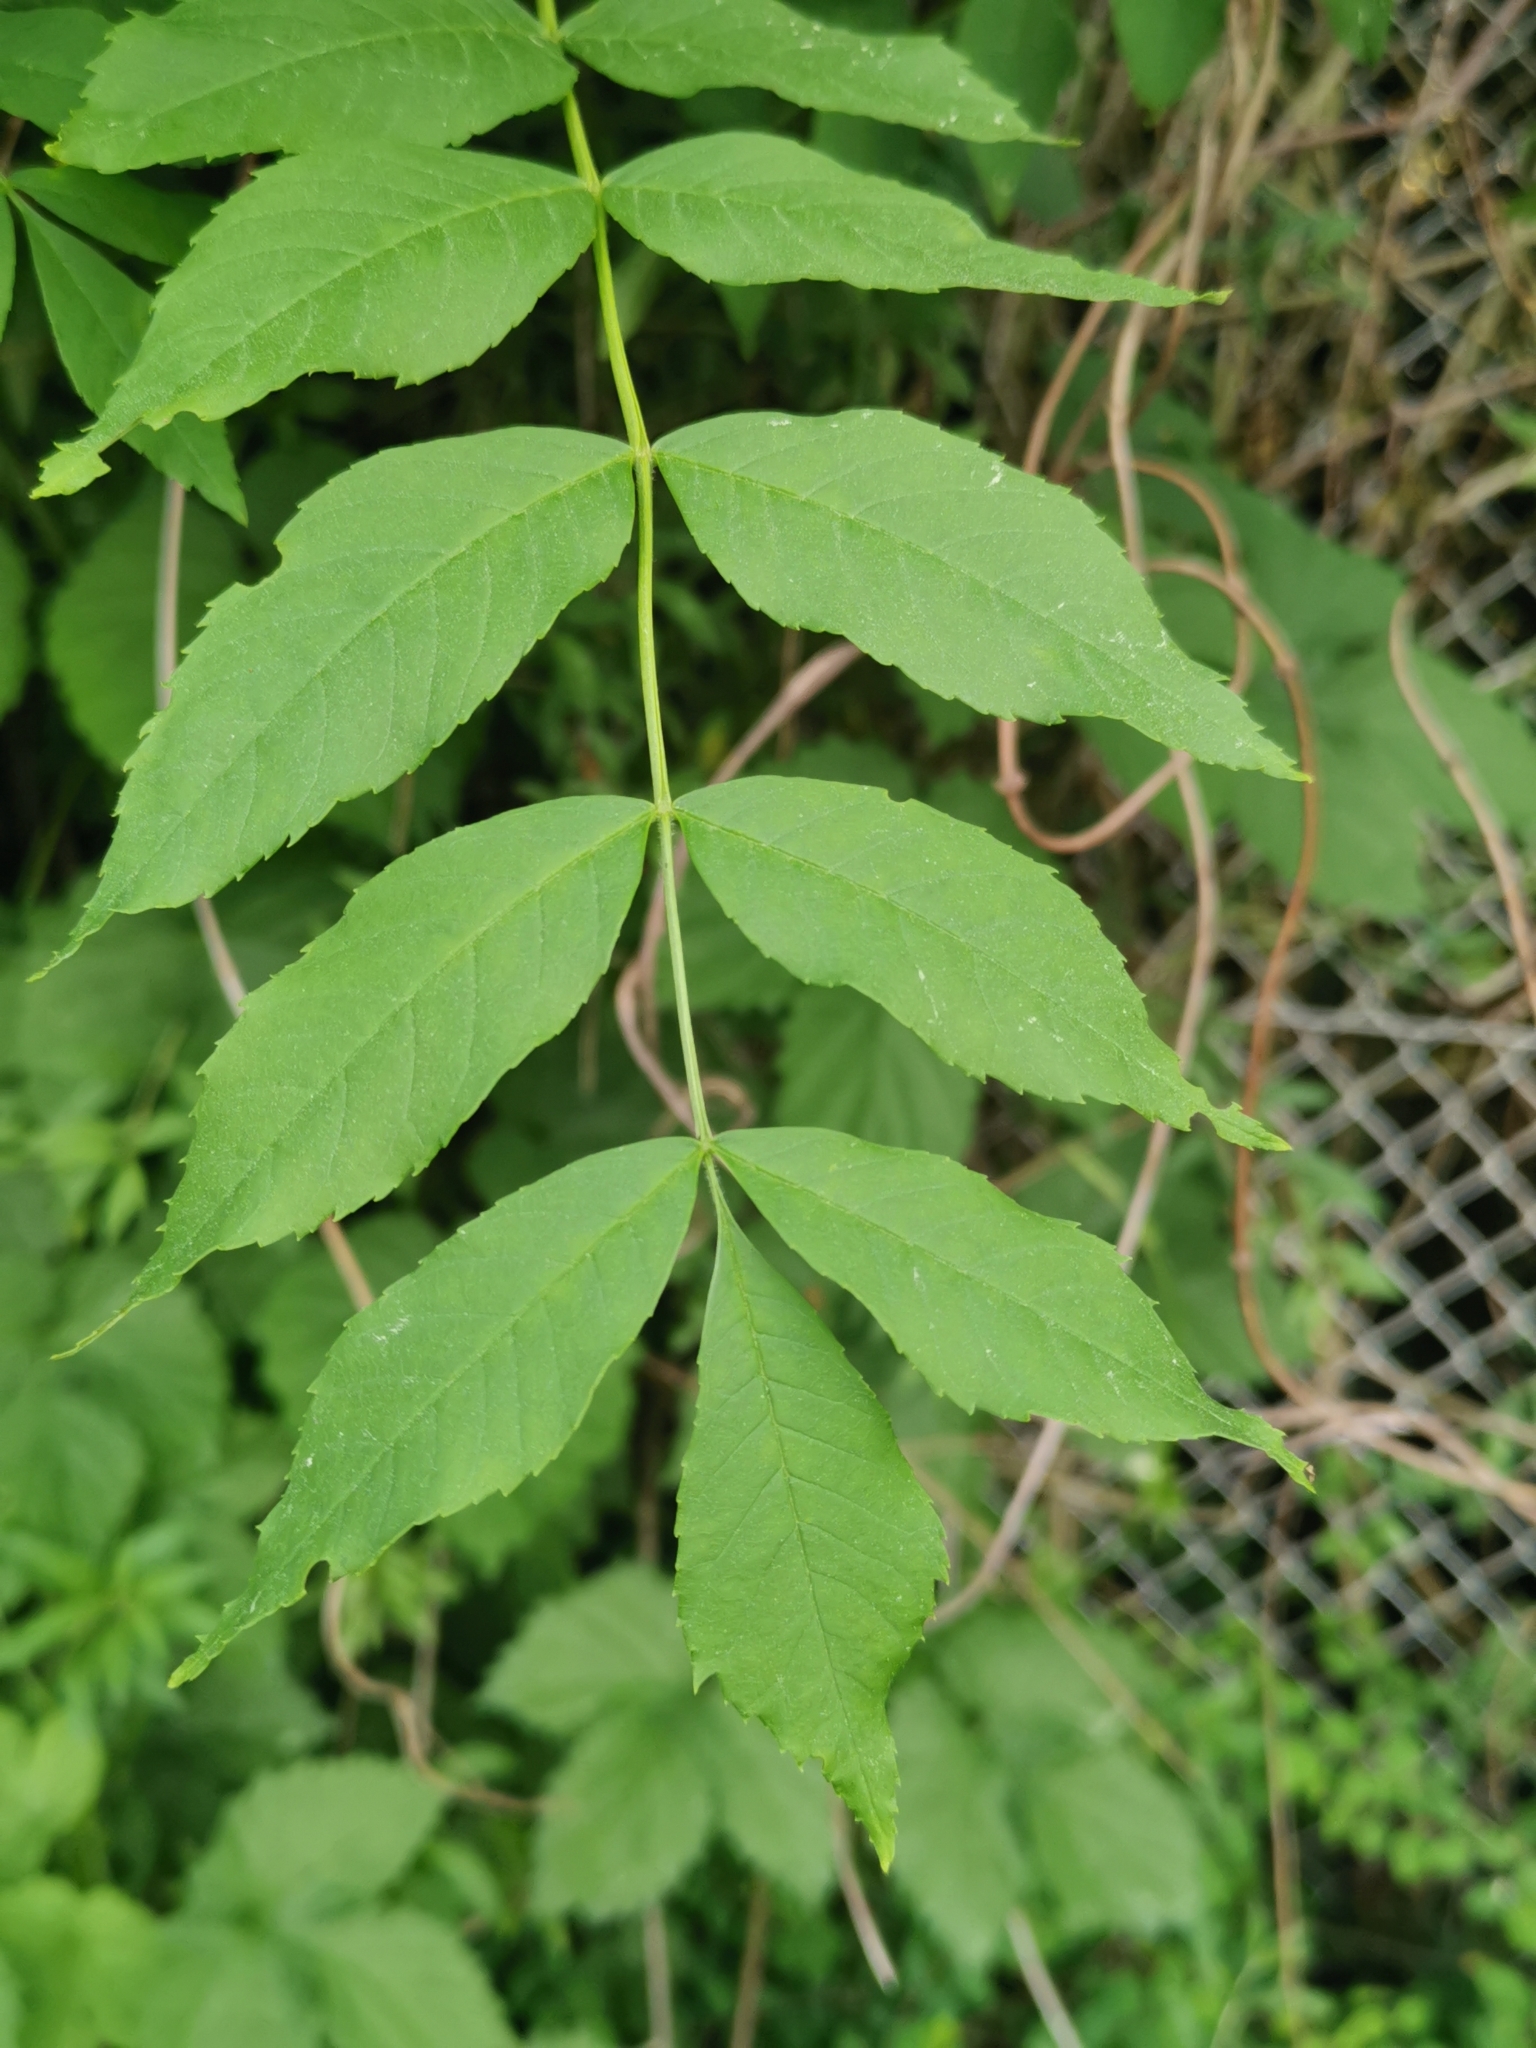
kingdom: Plantae
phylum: Tracheophyta
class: Magnoliopsida
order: Lamiales
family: Oleaceae
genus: Fraxinus
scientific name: Fraxinus excelsior
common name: European ash
